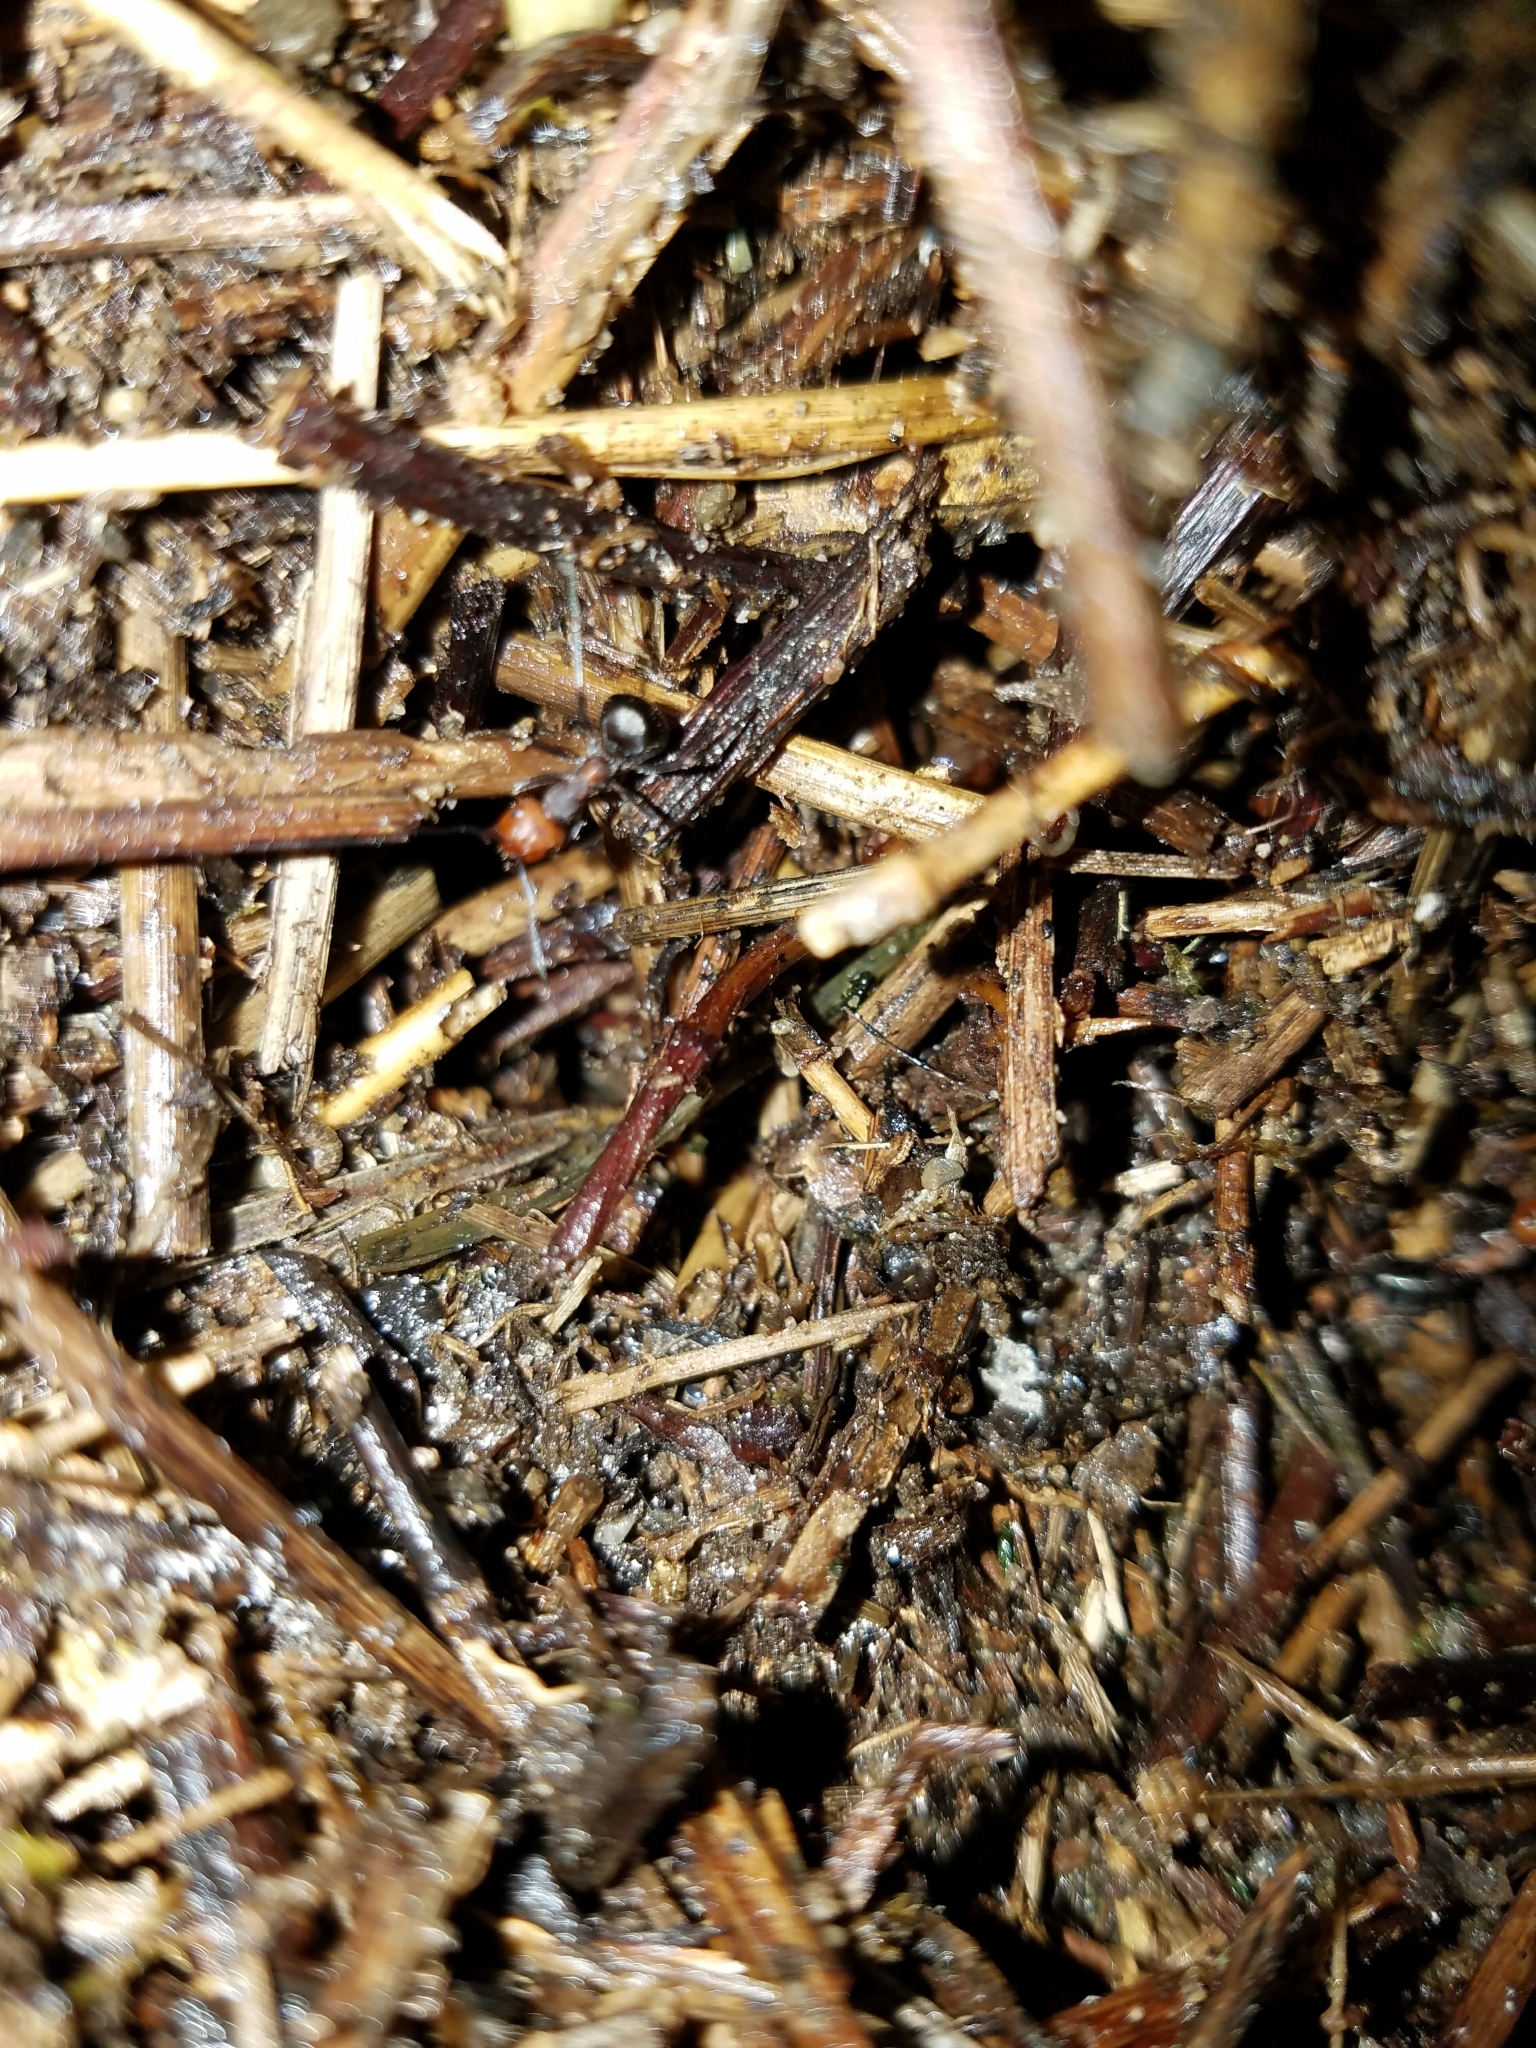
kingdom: Animalia
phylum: Arthropoda
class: Insecta
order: Hymenoptera
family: Formicidae
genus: Formica
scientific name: Formica obscuripes
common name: Western thatching ant
